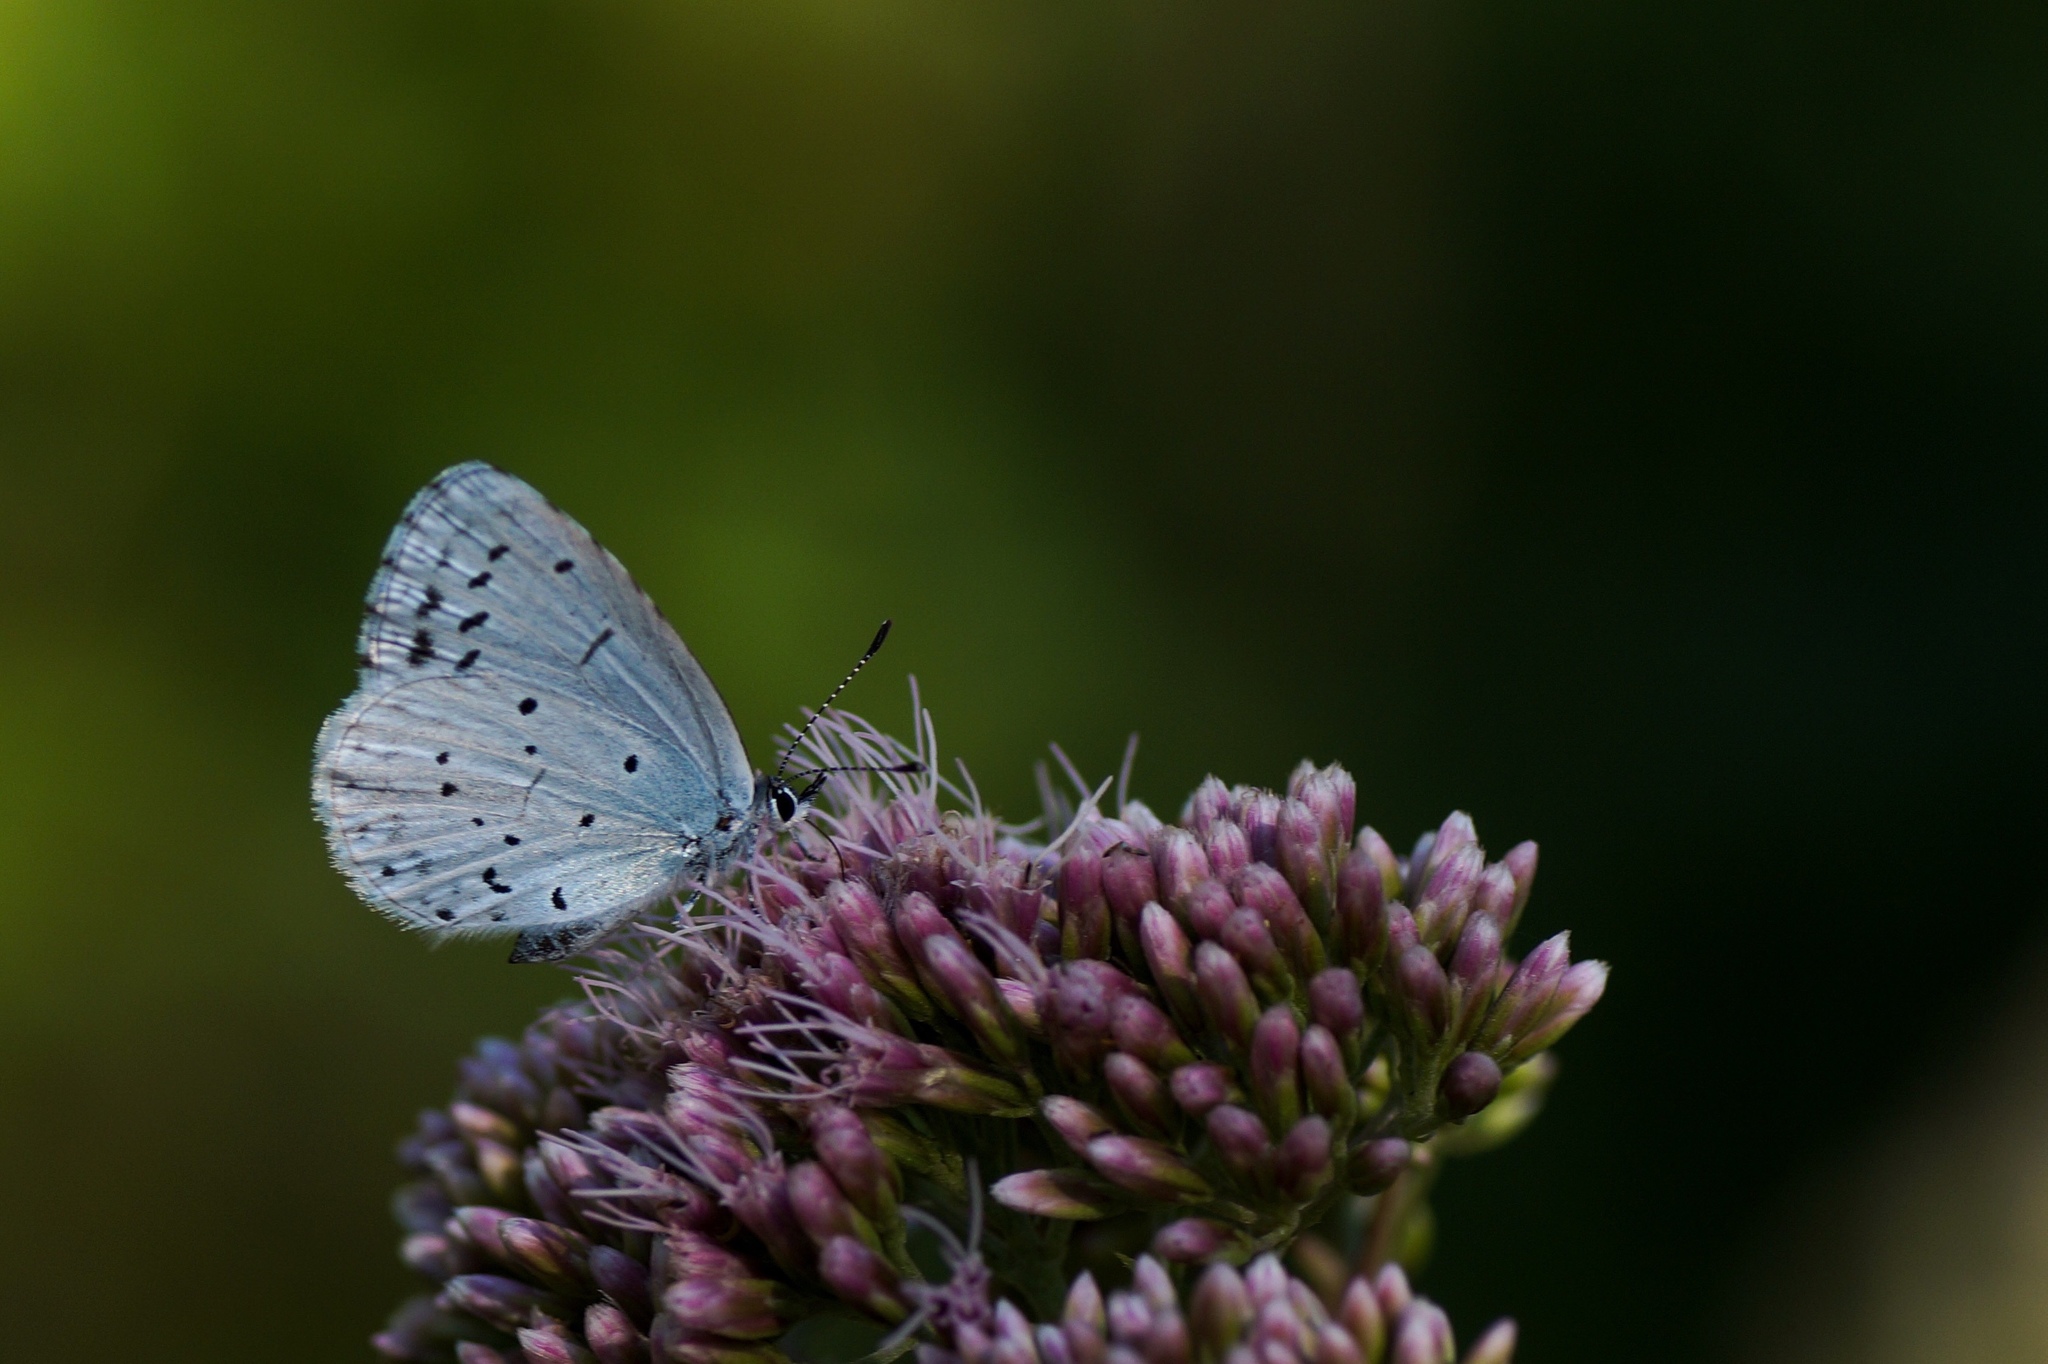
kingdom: Animalia
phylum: Arthropoda
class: Insecta
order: Lepidoptera
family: Lycaenidae
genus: Celastrina
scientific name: Celastrina argiolus
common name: Holly blue
